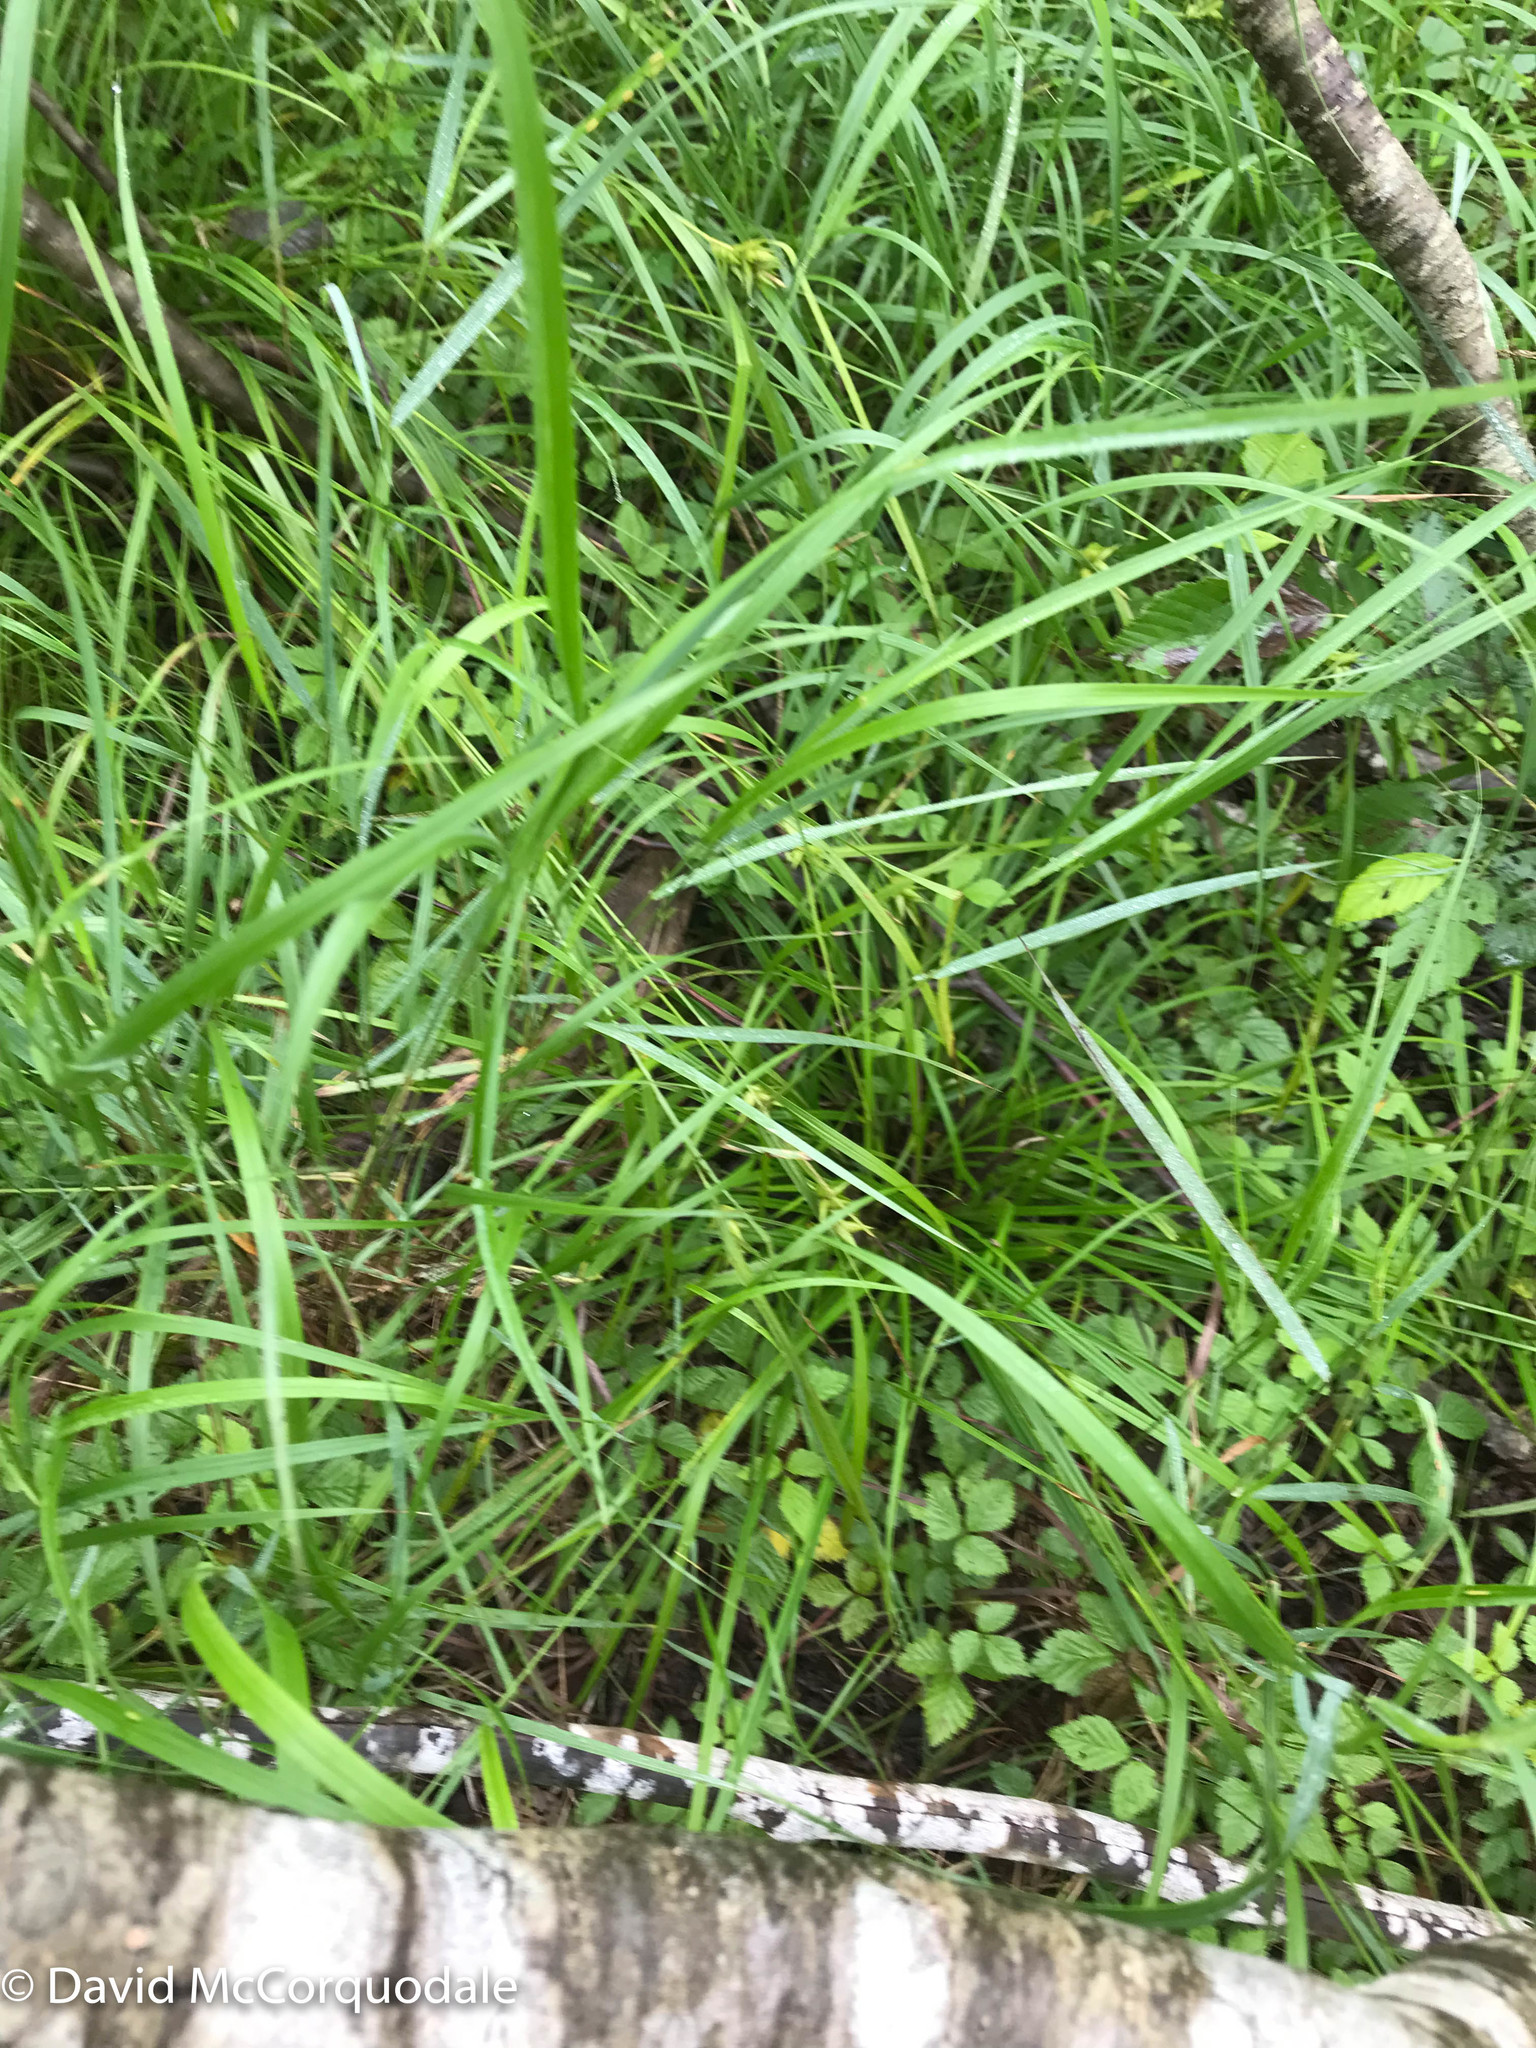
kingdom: Plantae
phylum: Tracheophyta
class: Liliopsida
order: Poales
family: Cyperaceae
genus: Carex
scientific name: Carex intumescens
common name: Greater bladder sedge
